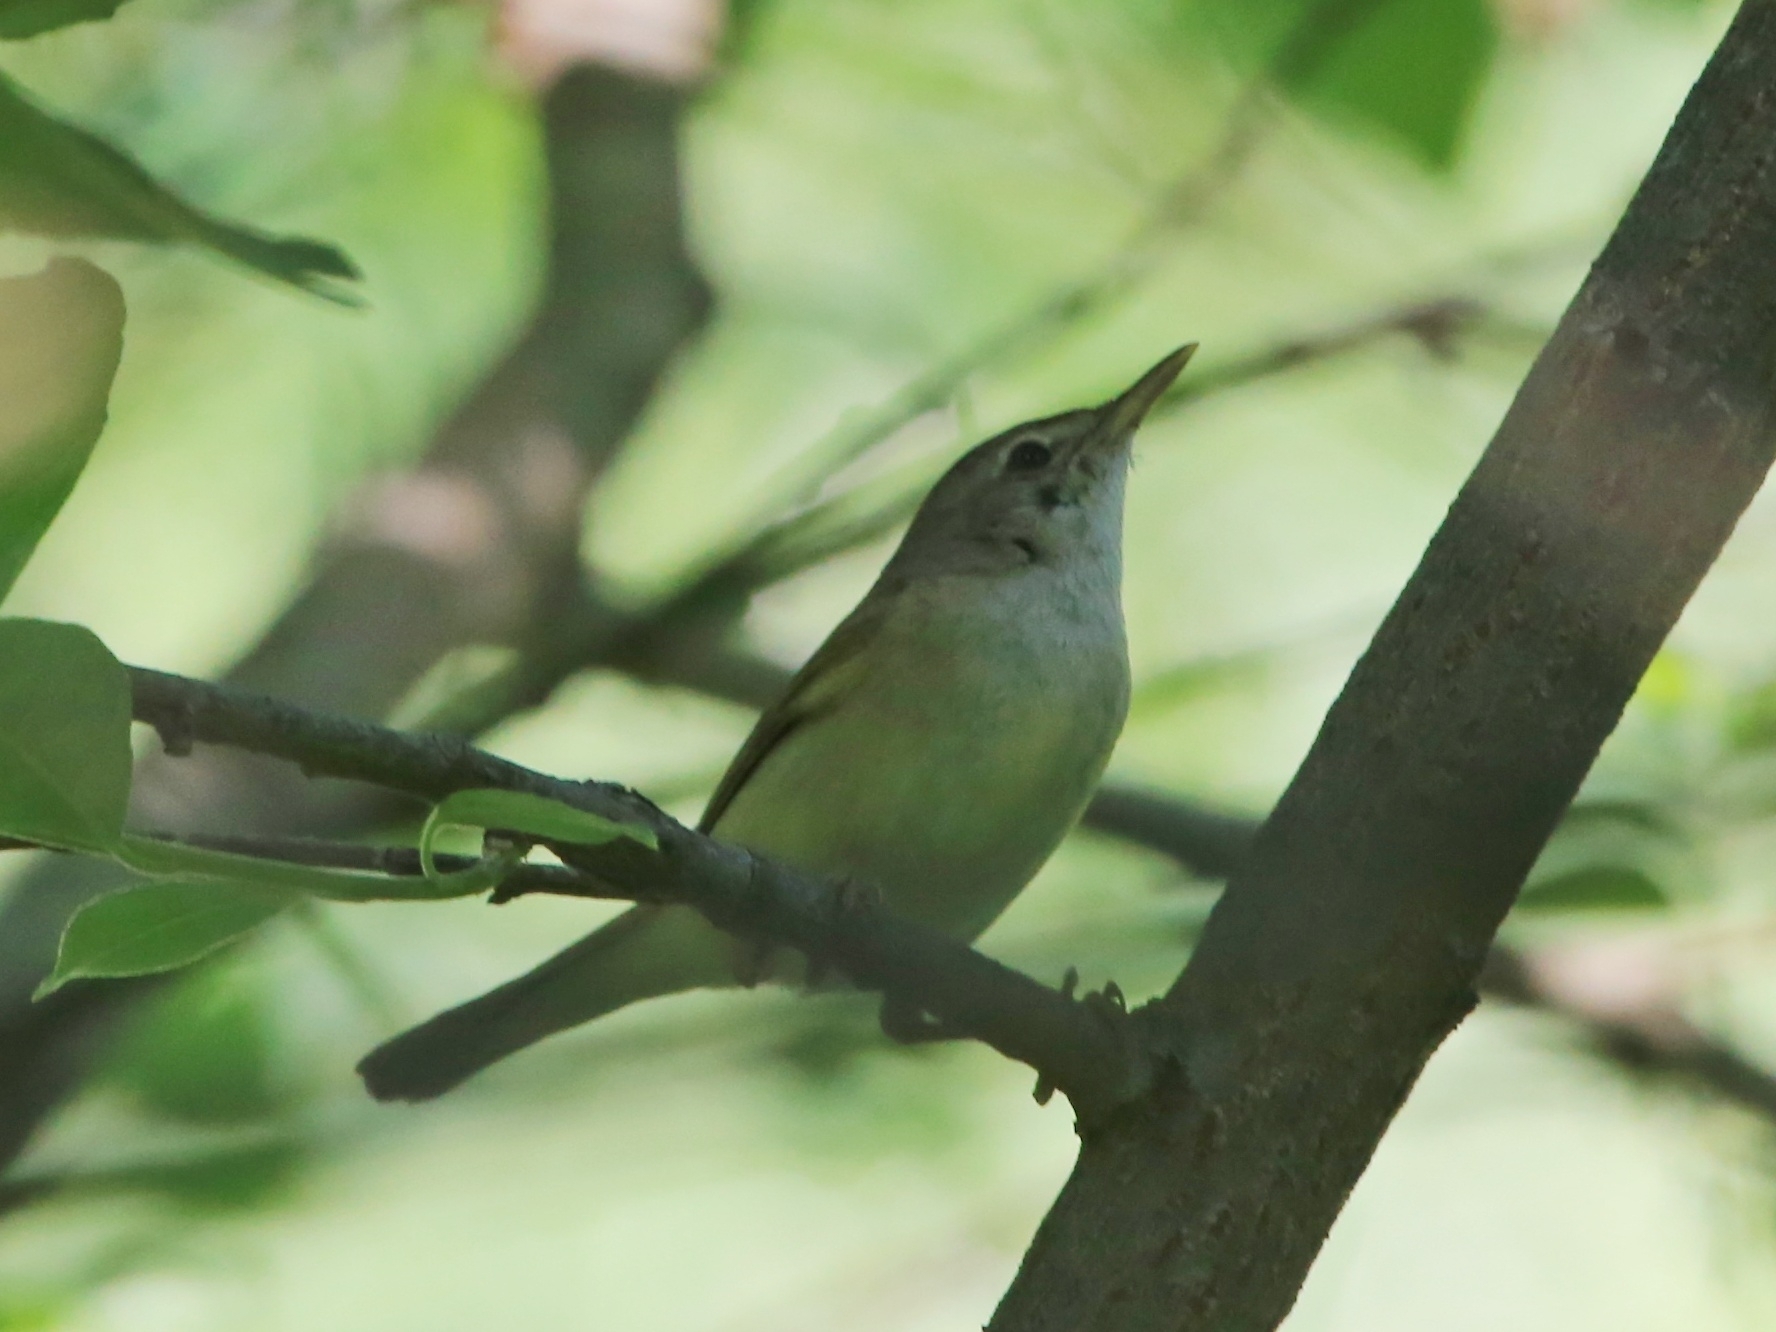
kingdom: Animalia
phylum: Chordata
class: Aves
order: Passeriformes
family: Acrocephalidae
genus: Acrocephalus
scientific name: Acrocephalus dumetorum
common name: Blyth's reed warbler
